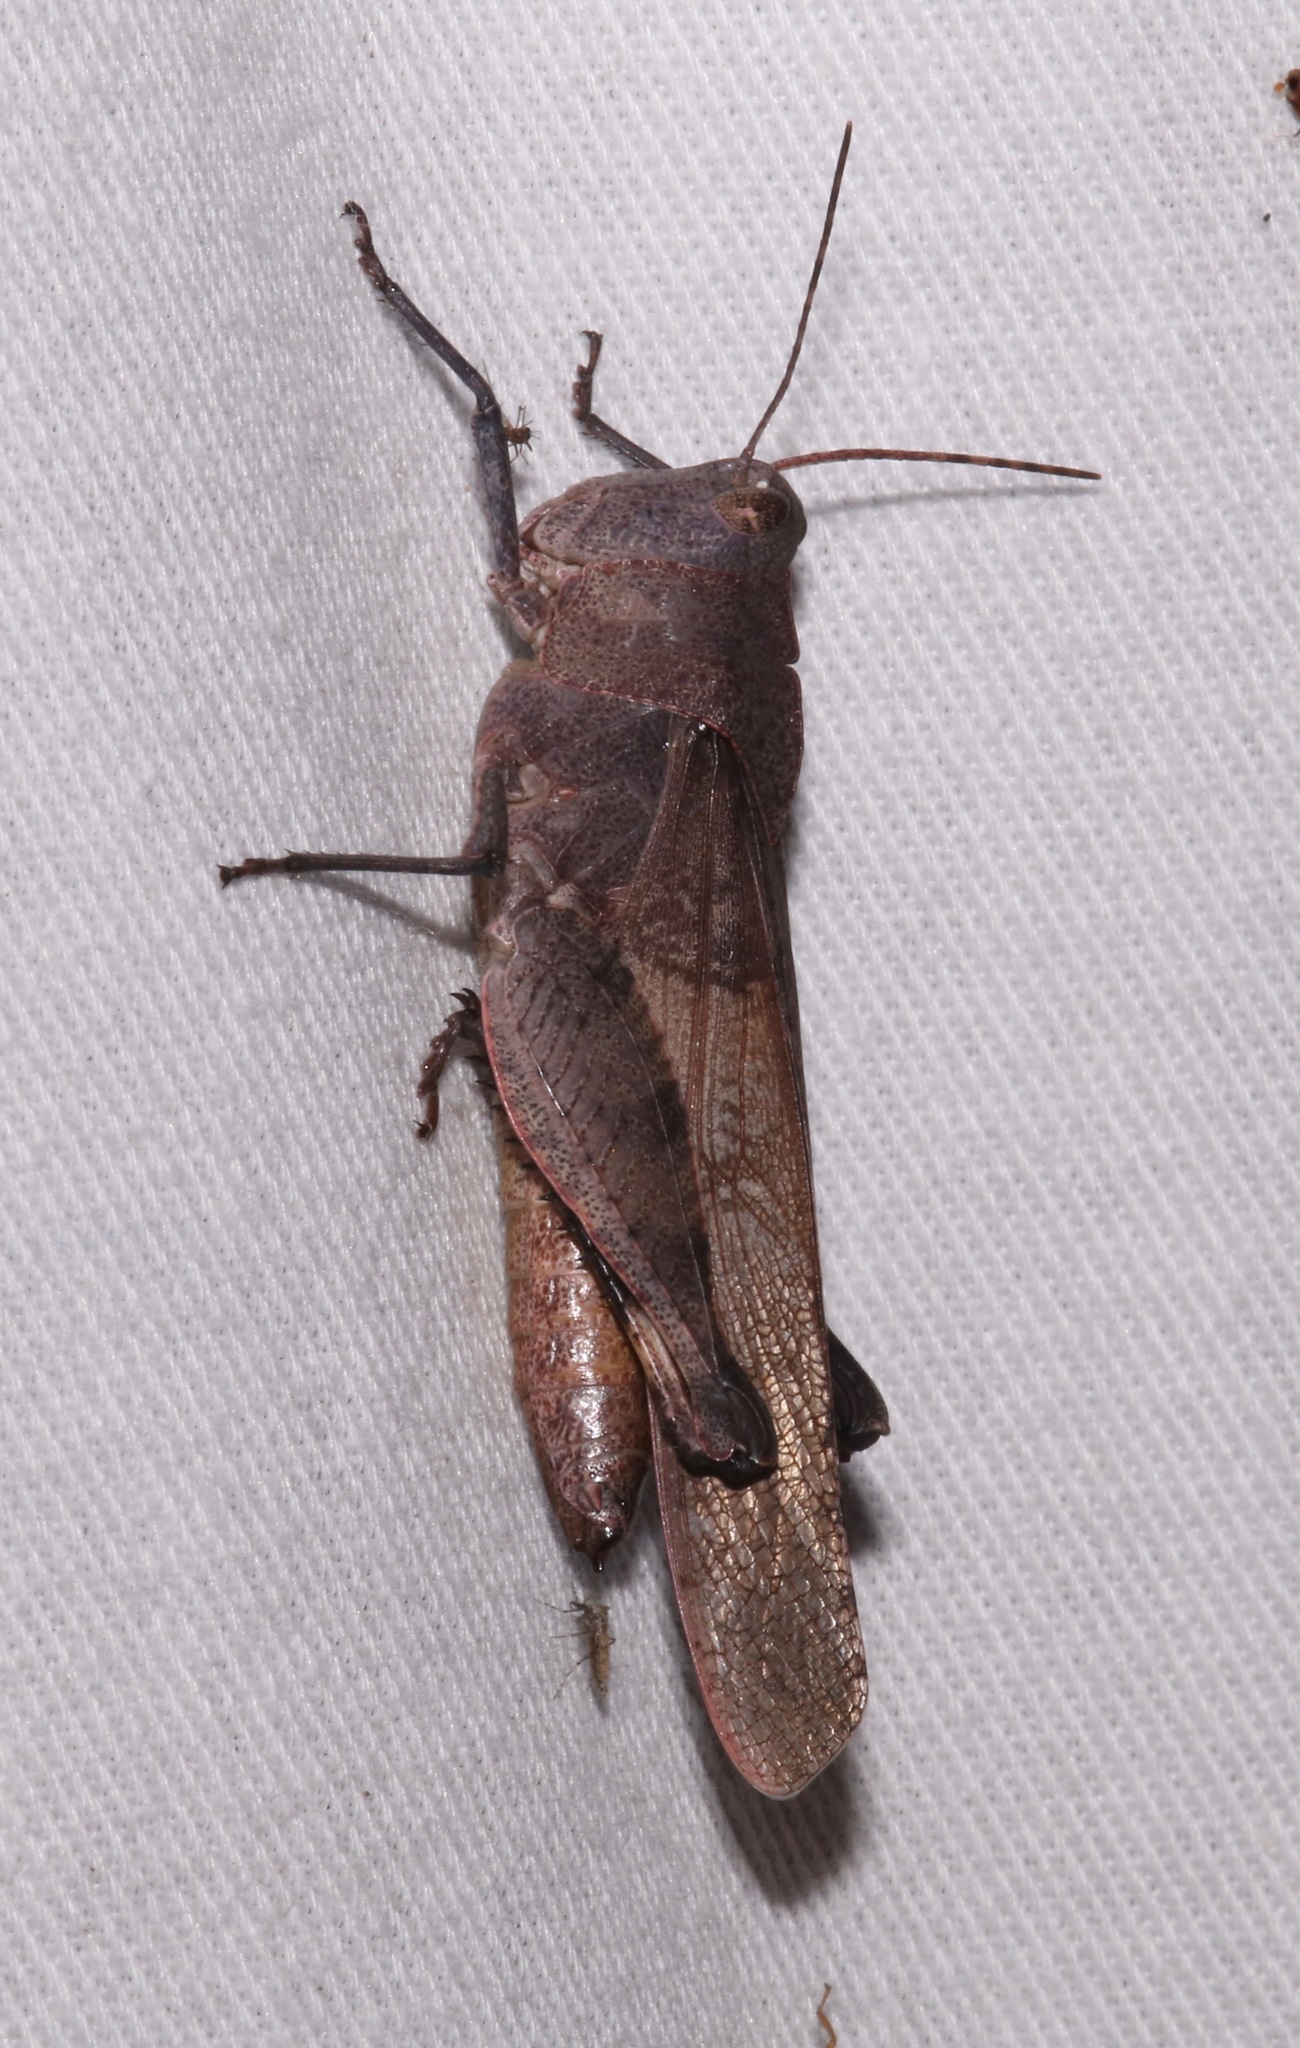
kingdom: Animalia
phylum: Arthropoda
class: Insecta
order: Orthoptera
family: Acrididae
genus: Spharagemon
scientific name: Spharagemon crepitans
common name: Crepitating grasshopper
